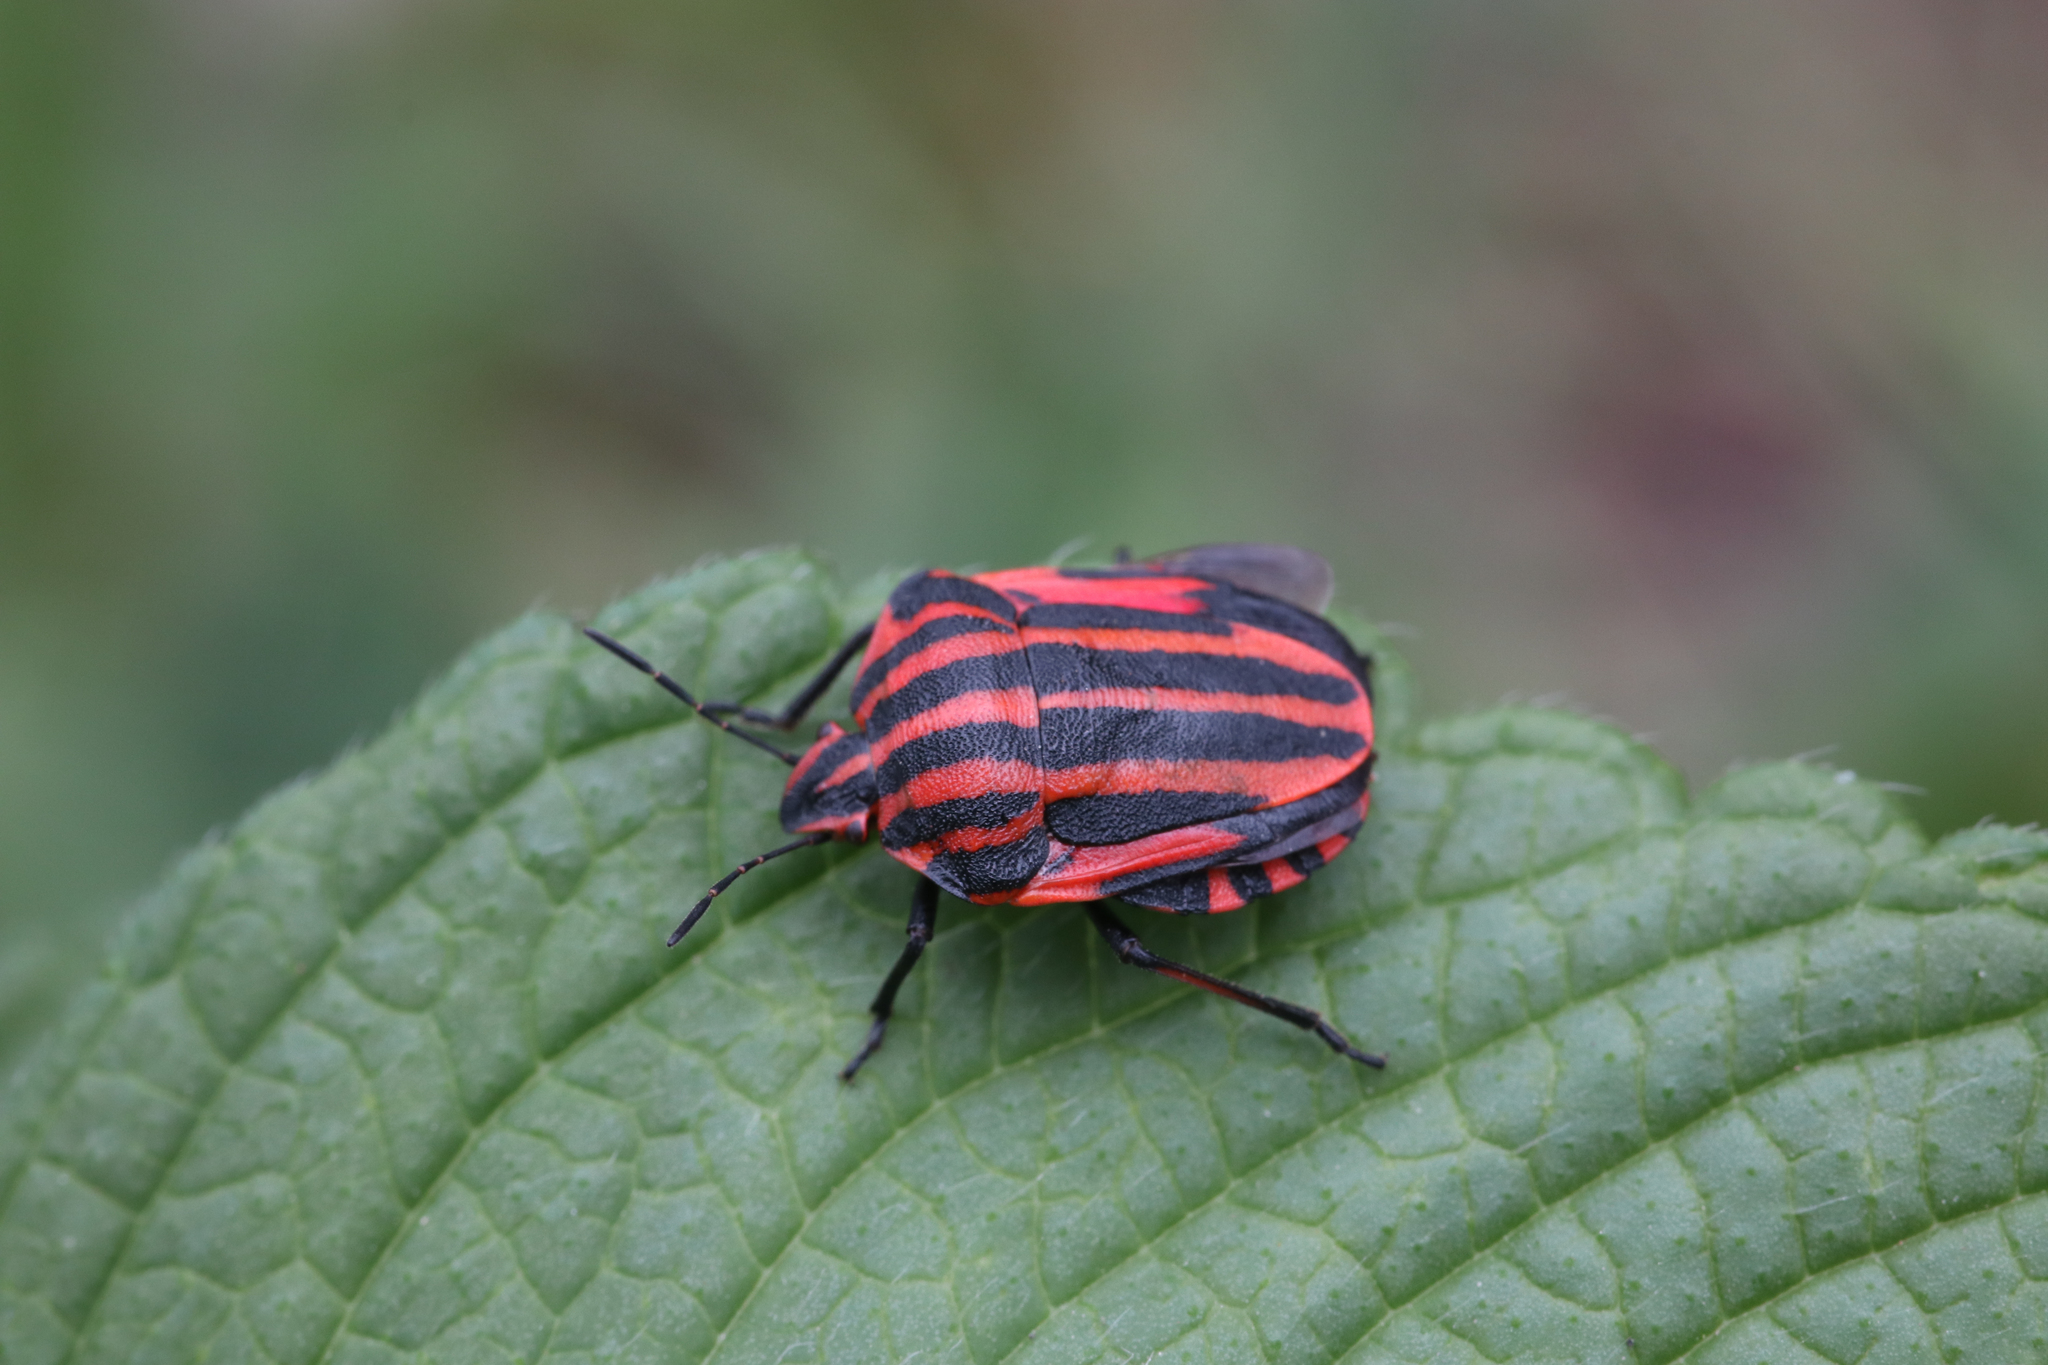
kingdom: Animalia
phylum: Arthropoda
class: Insecta
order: Hemiptera
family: Pentatomidae
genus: Graphosoma
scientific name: Graphosoma italicum
